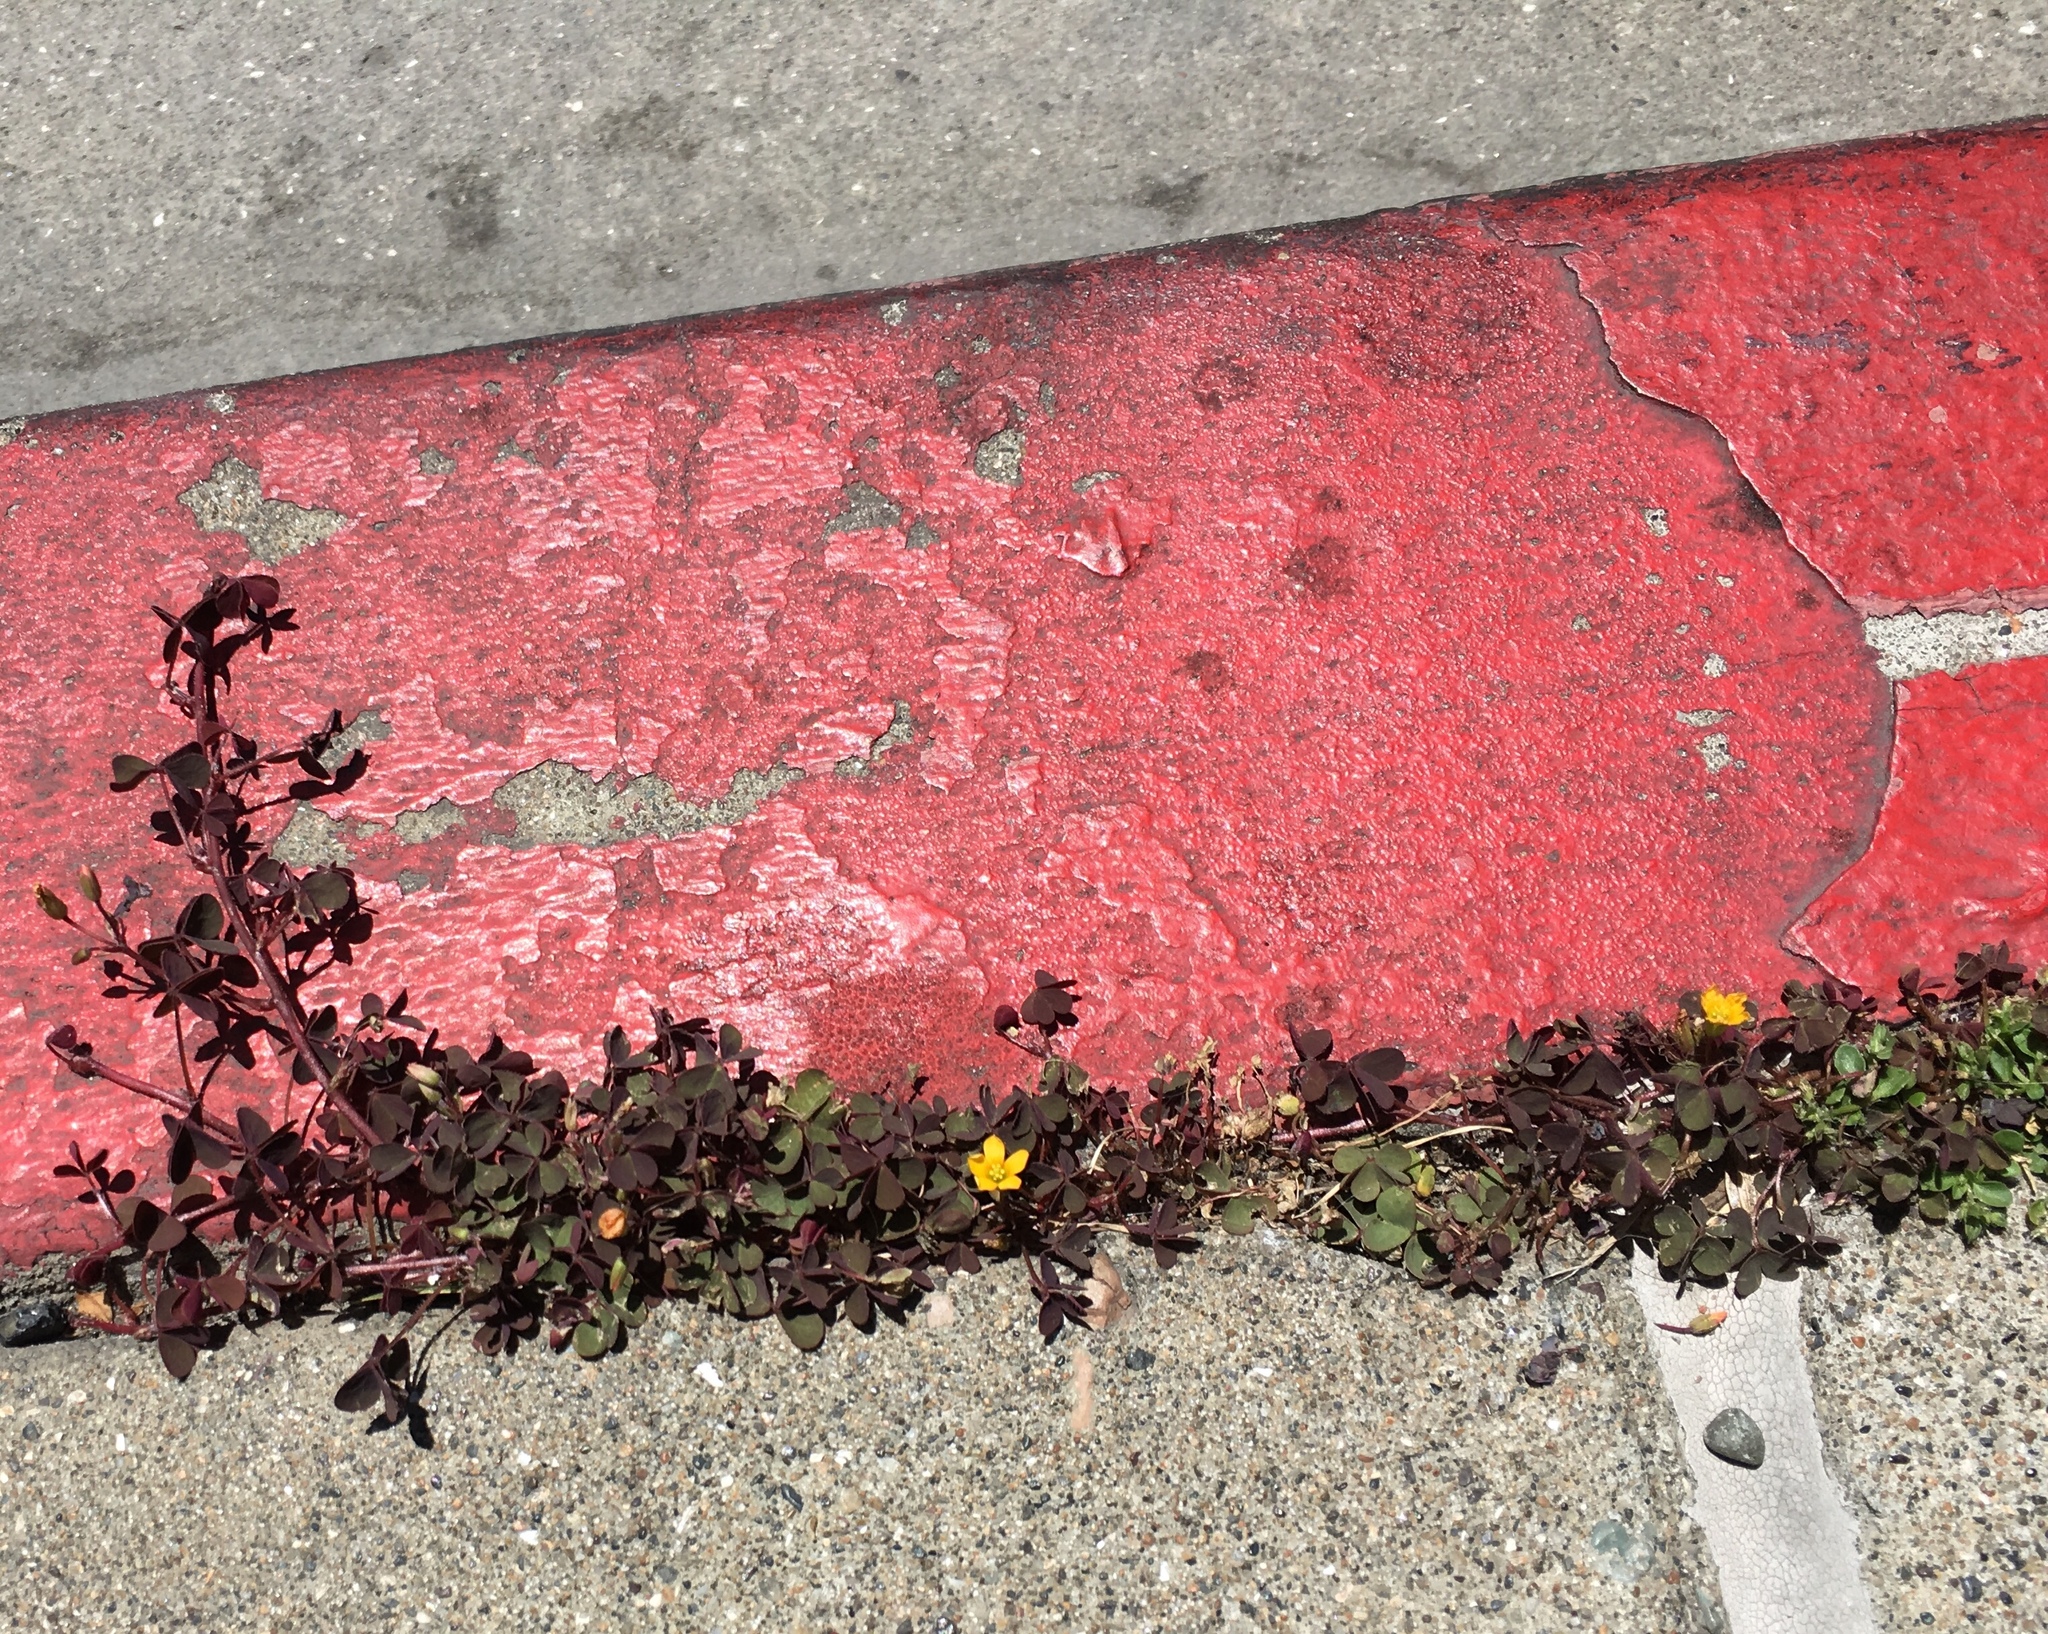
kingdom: Plantae
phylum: Tracheophyta
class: Magnoliopsida
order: Oxalidales
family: Oxalidaceae
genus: Oxalis
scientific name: Oxalis corniculata
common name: Procumbent yellow-sorrel
